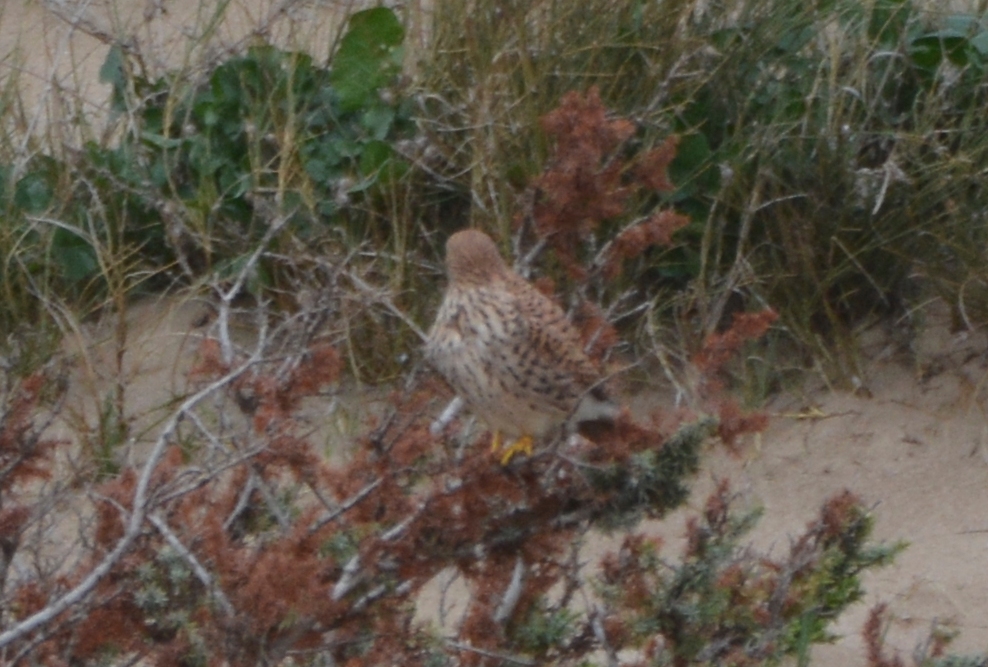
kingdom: Animalia
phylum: Chordata
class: Aves
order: Falconiformes
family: Falconidae
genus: Falco
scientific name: Falco tinnunculus
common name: Common kestrel
